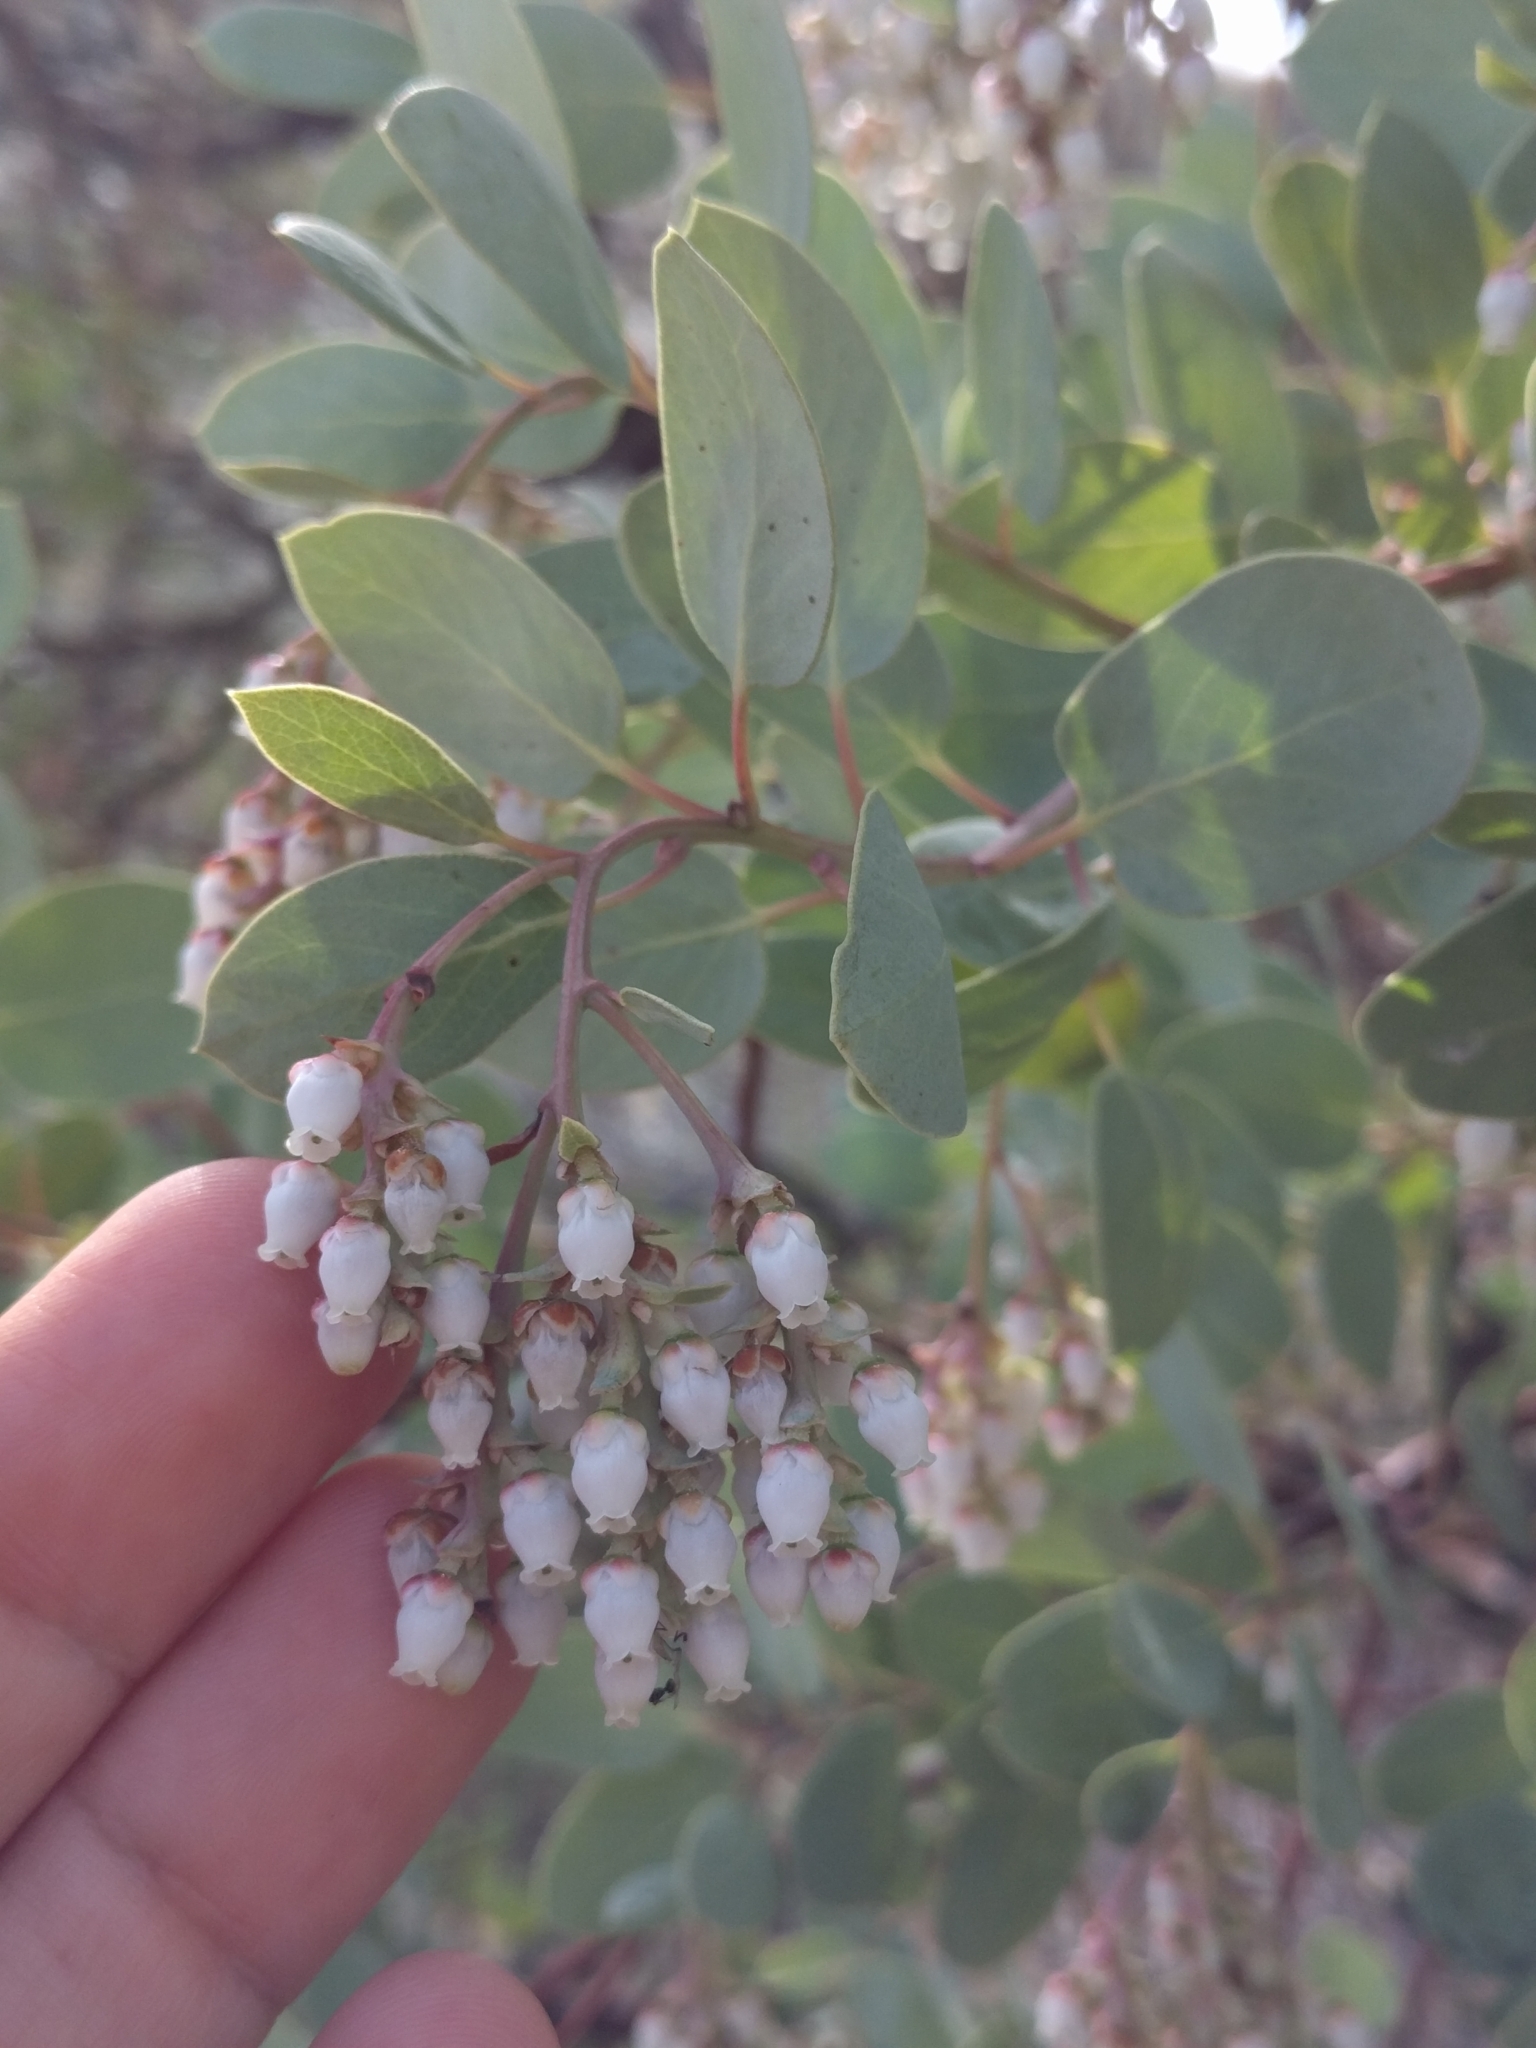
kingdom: Plantae
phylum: Tracheophyta
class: Magnoliopsida
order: Ericales
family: Ericaceae
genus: Arctostaphylos
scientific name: Arctostaphylos glauca
